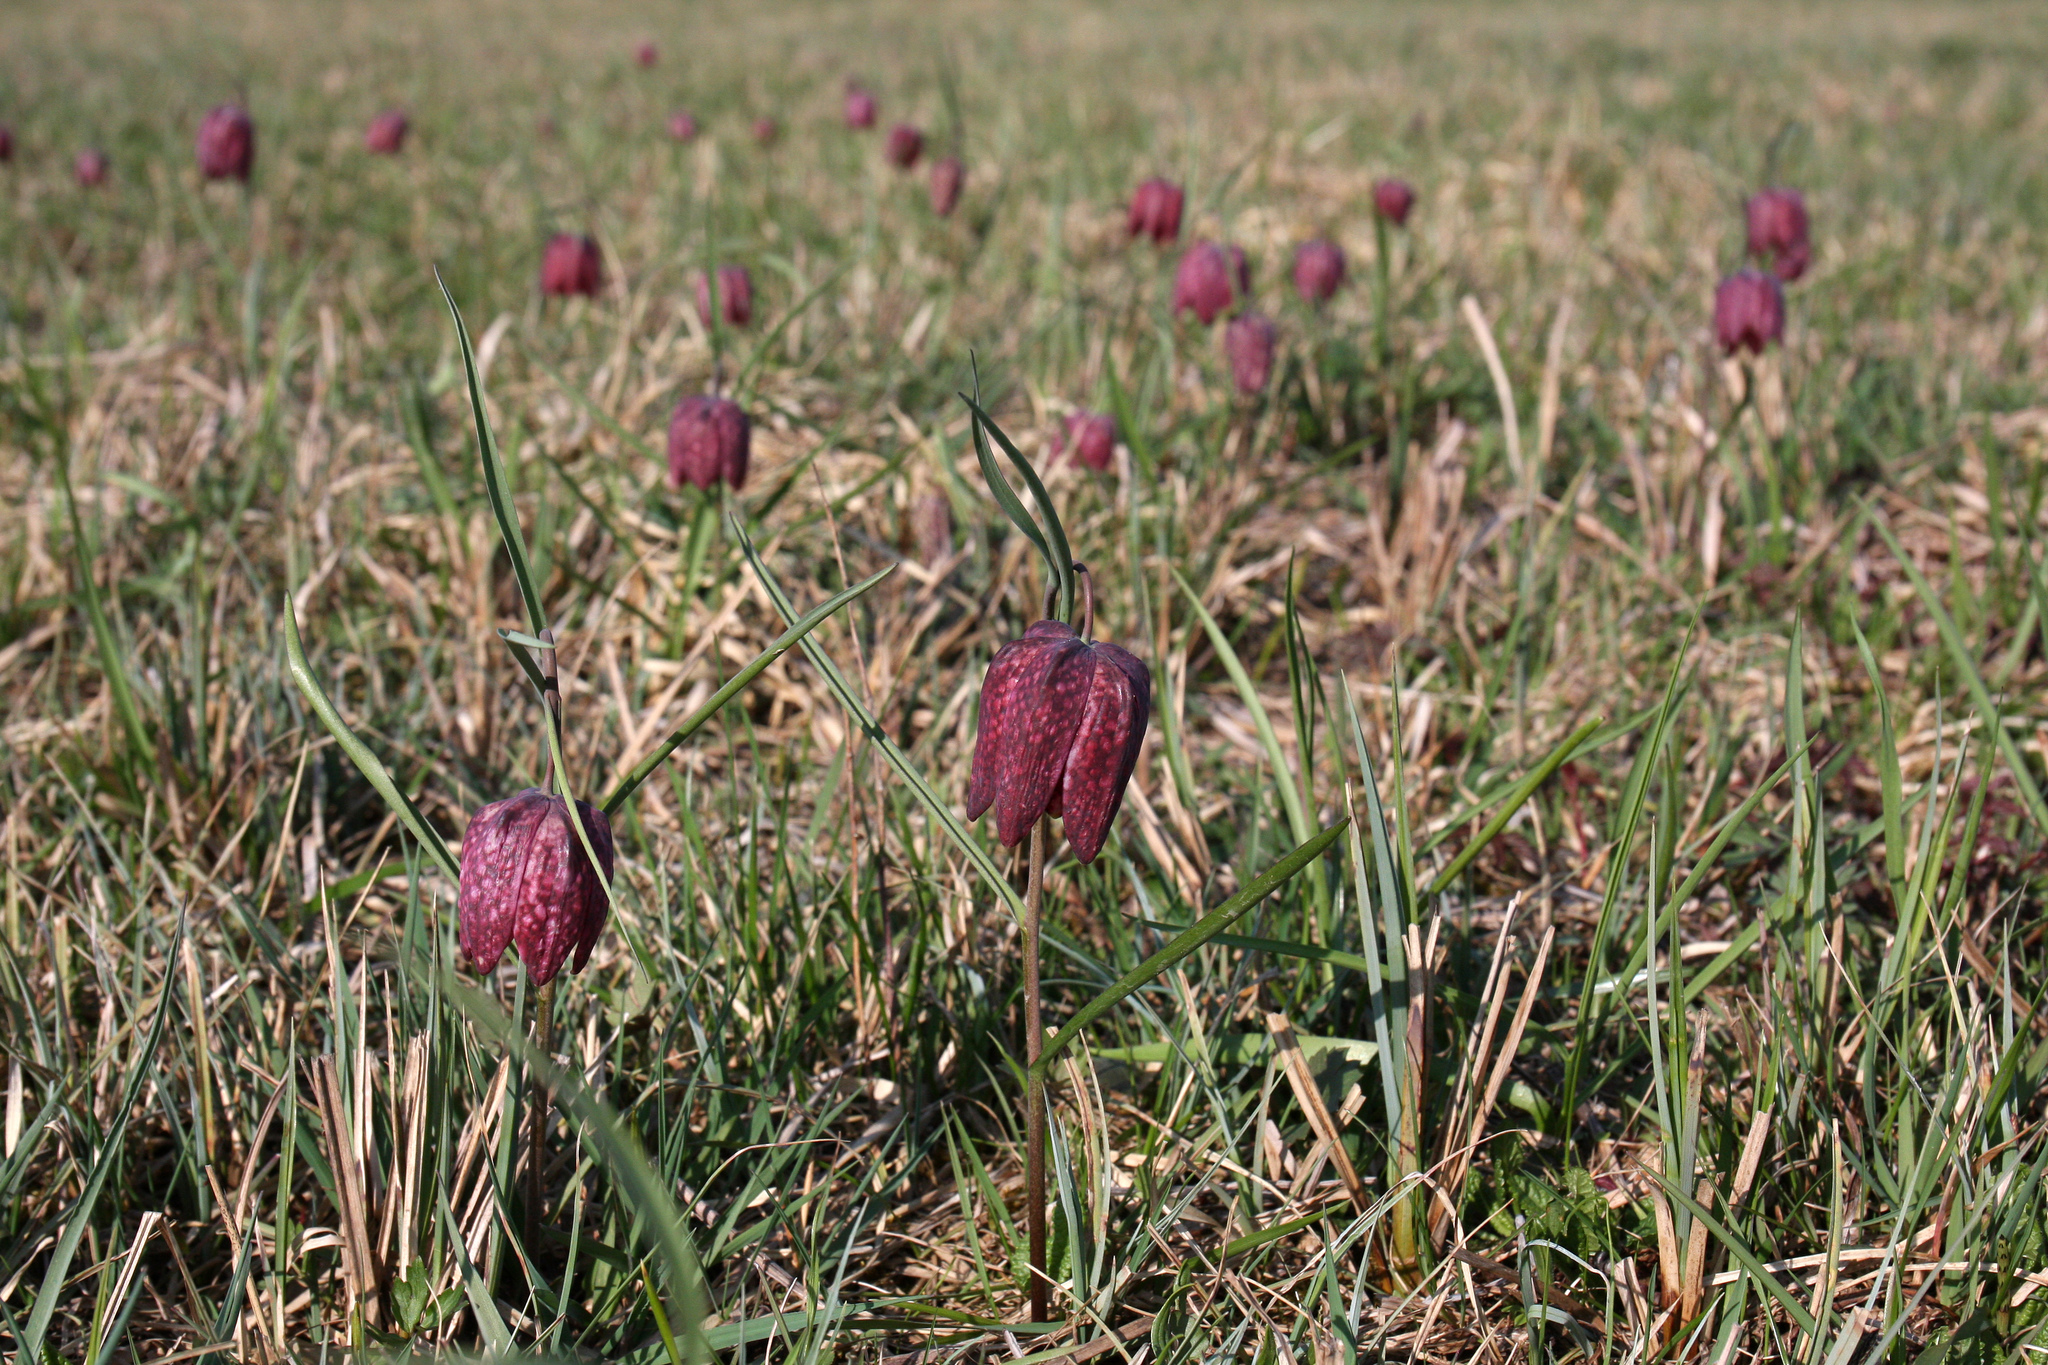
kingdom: Plantae
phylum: Tracheophyta
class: Liliopsida
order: Liliales
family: Liliaceae
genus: Fritillaria
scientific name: Fritillaria meleagris
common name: Fritillary
